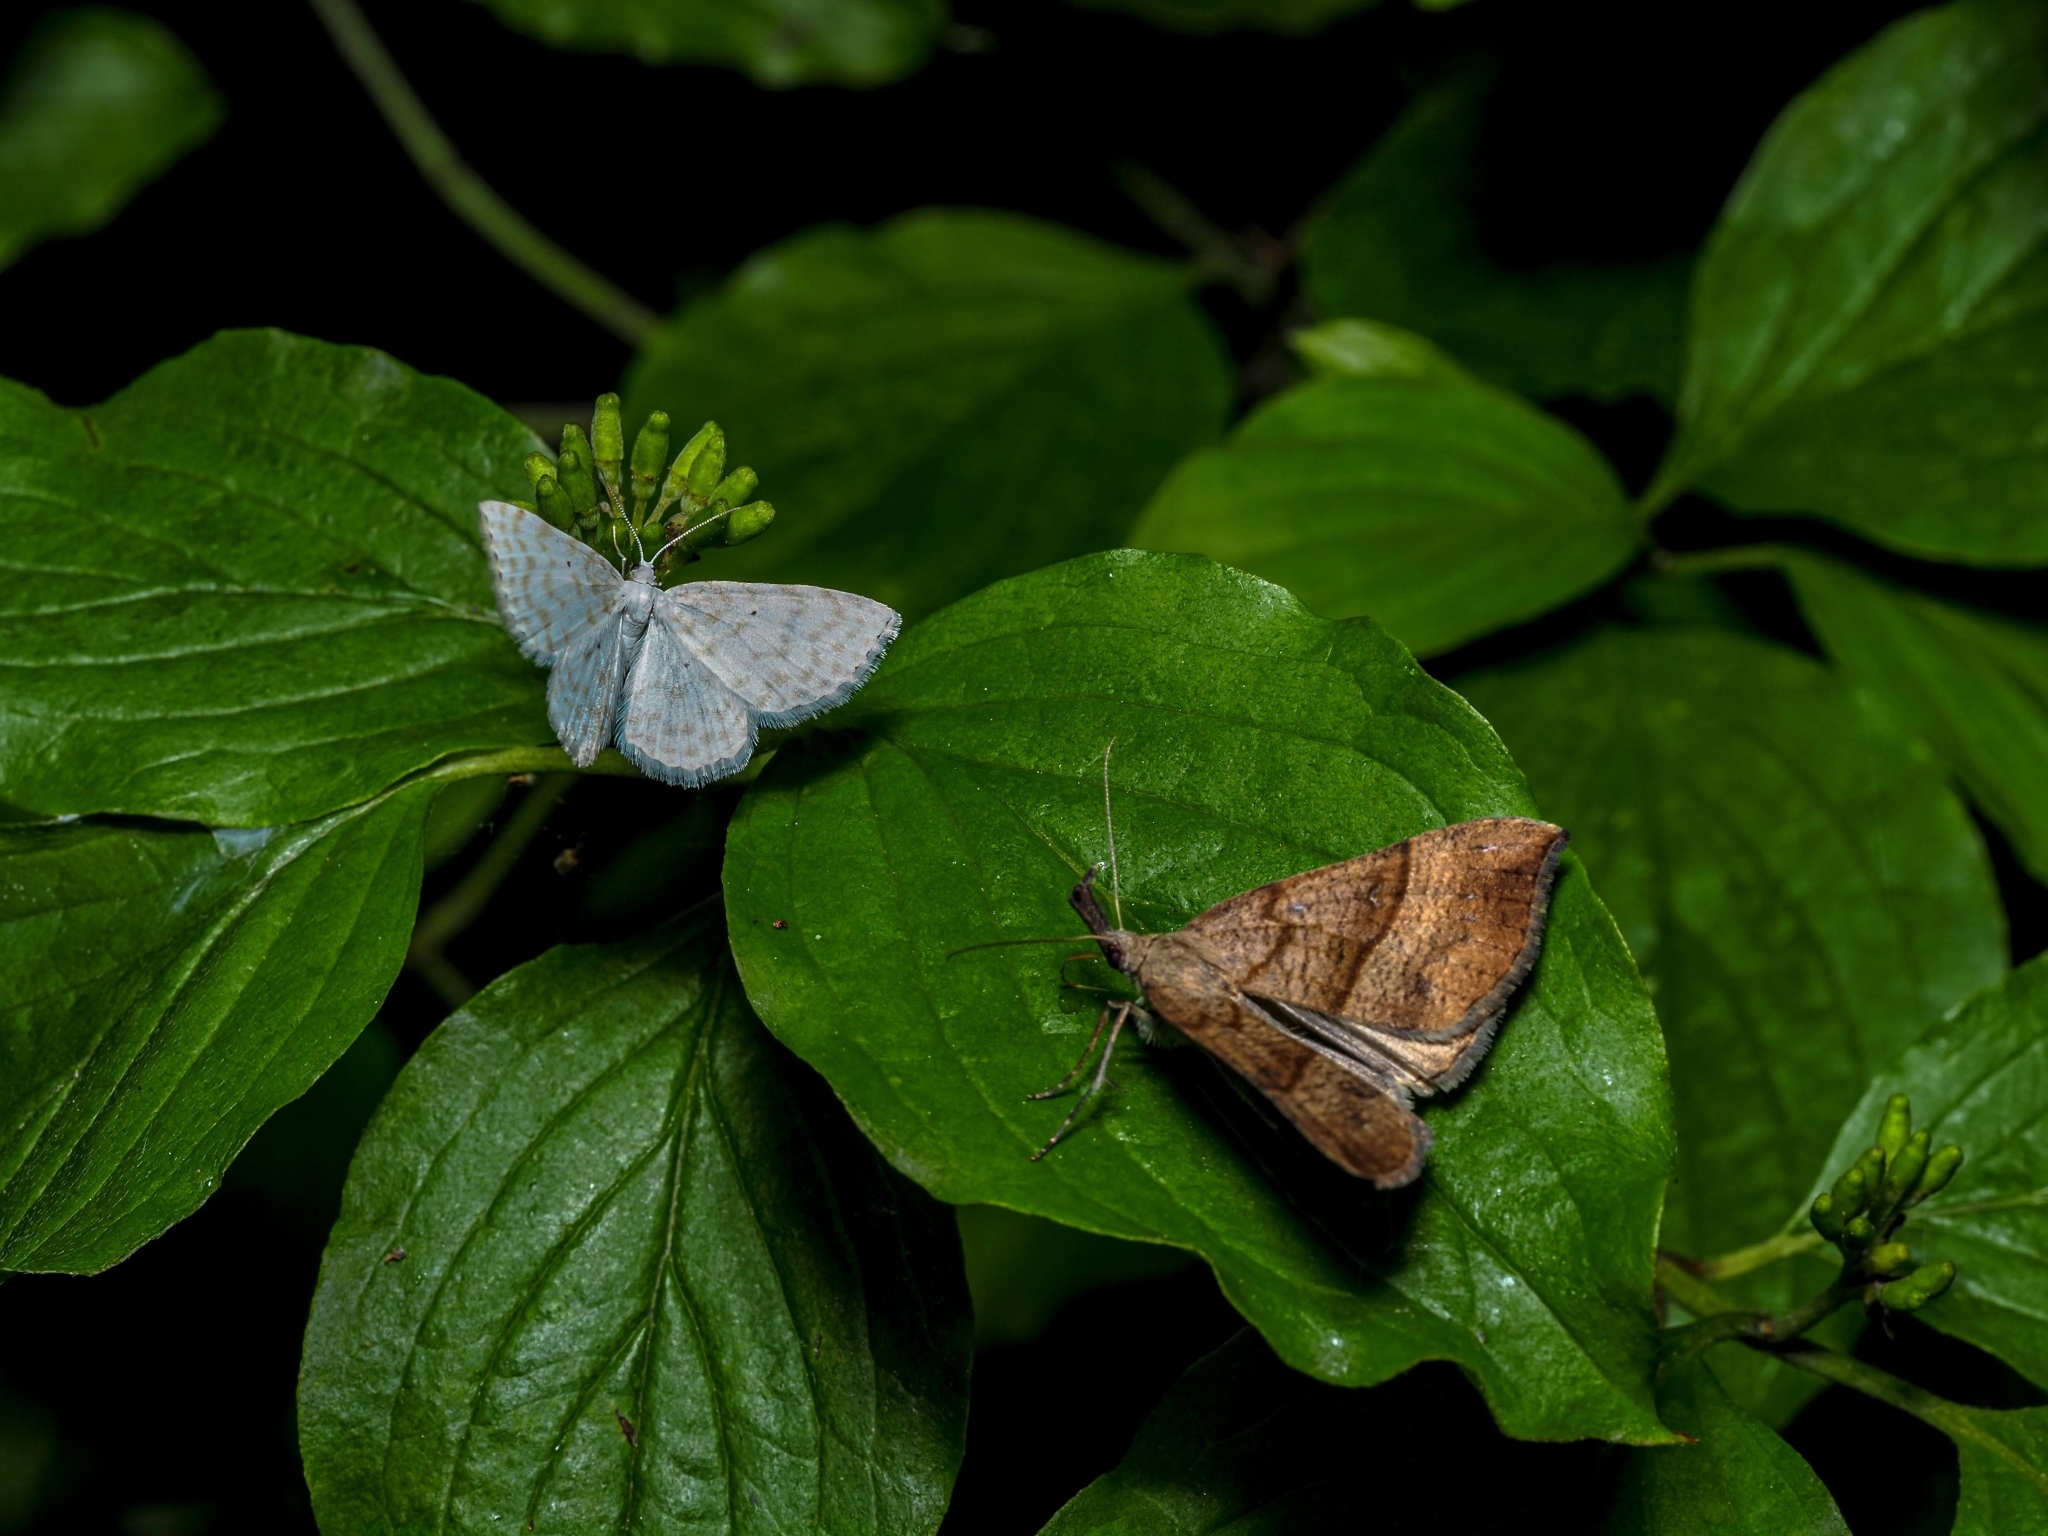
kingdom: Animalia
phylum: Arthropoda
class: Insecta
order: Lepidoptera
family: Erebidae
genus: Hypena
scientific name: Hypena proboscidalis
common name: Snout
